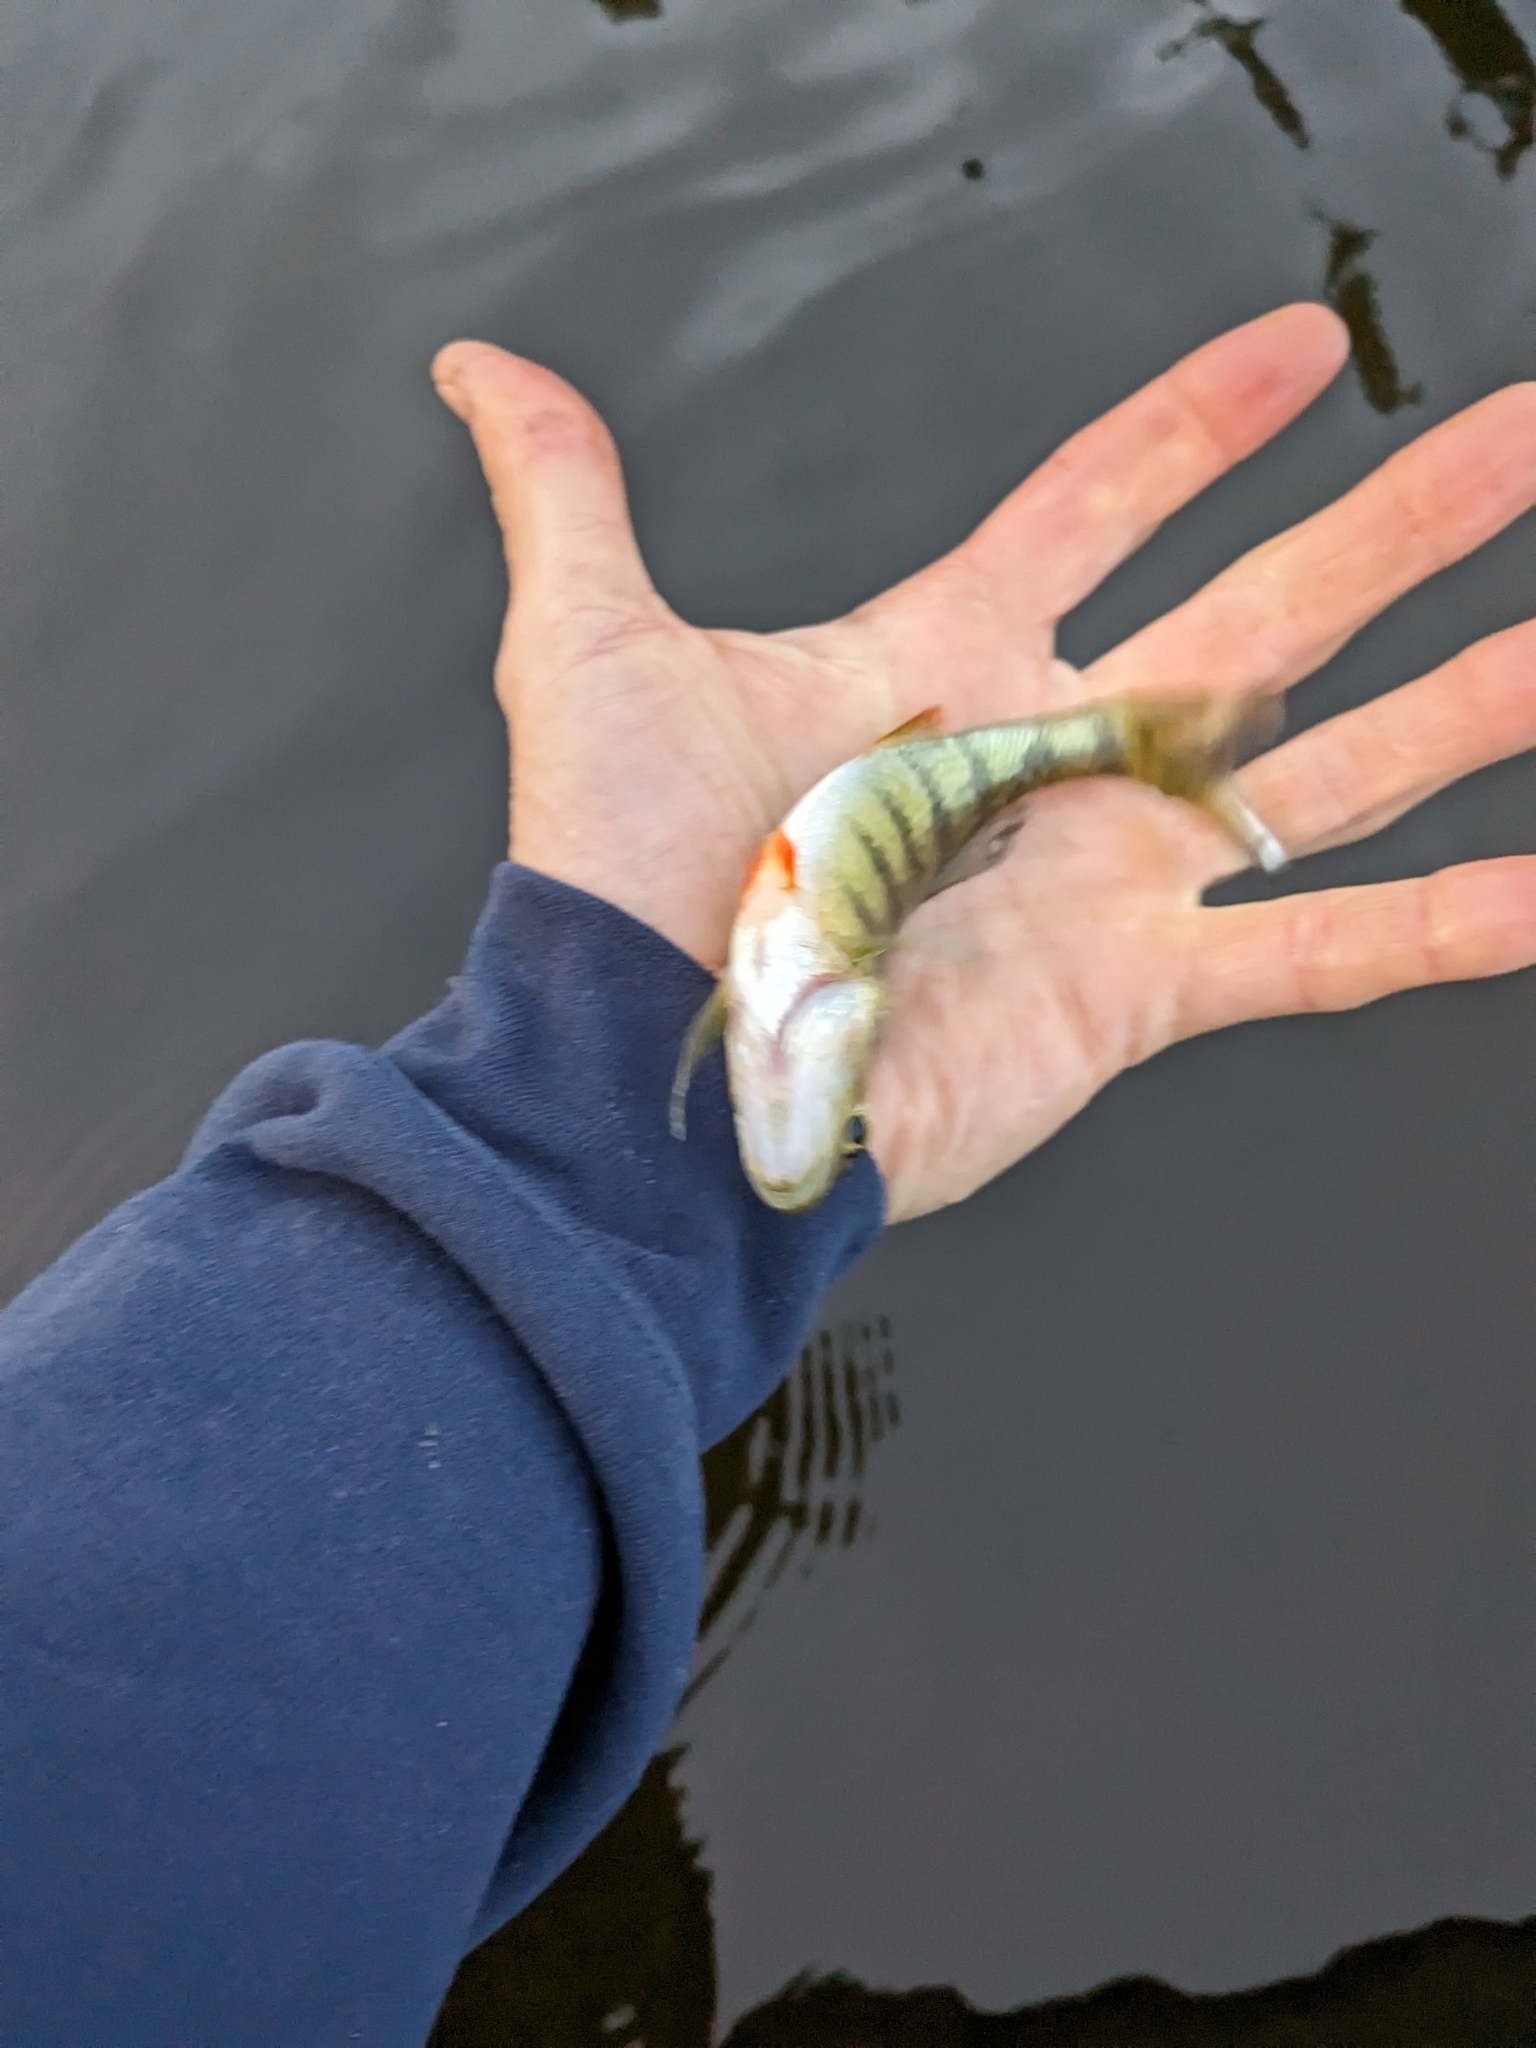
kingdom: Animalia
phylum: Chordata
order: Perciformes
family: Percidae
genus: Perca
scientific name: Perca flavescens
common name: Yellow perch
